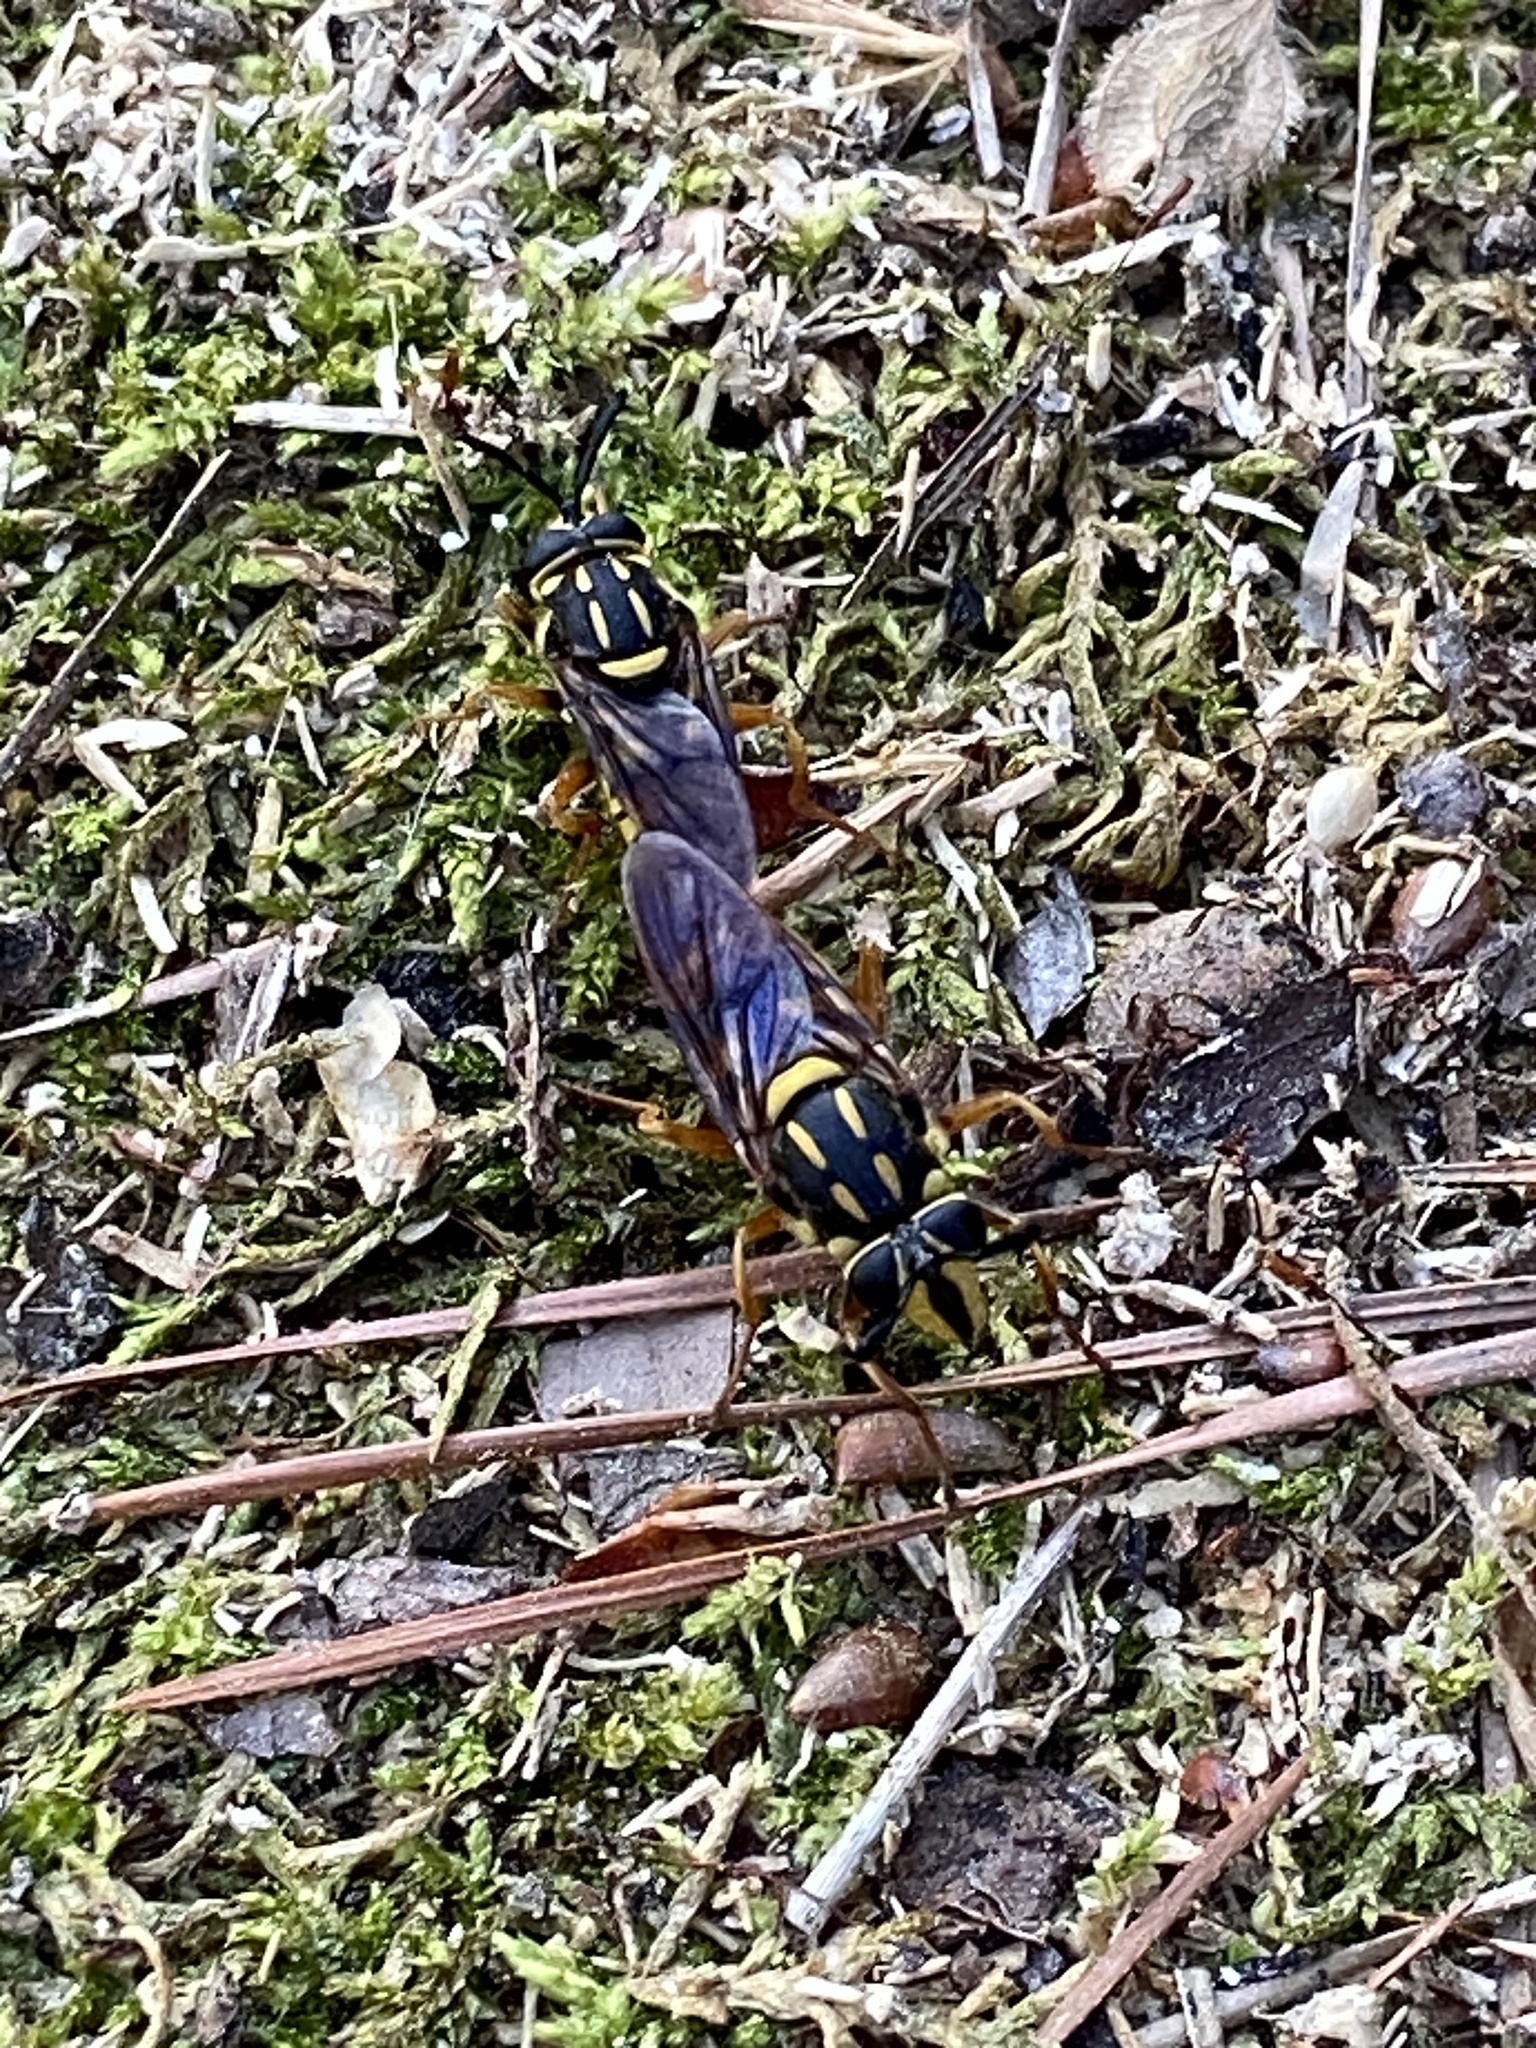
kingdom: Animalia
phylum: Arthropoda
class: Insecta
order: Diptera
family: Syrphidae
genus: Sphecomyia
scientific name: Sphecomyia vittata
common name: Long-horned yellowjacket fly
